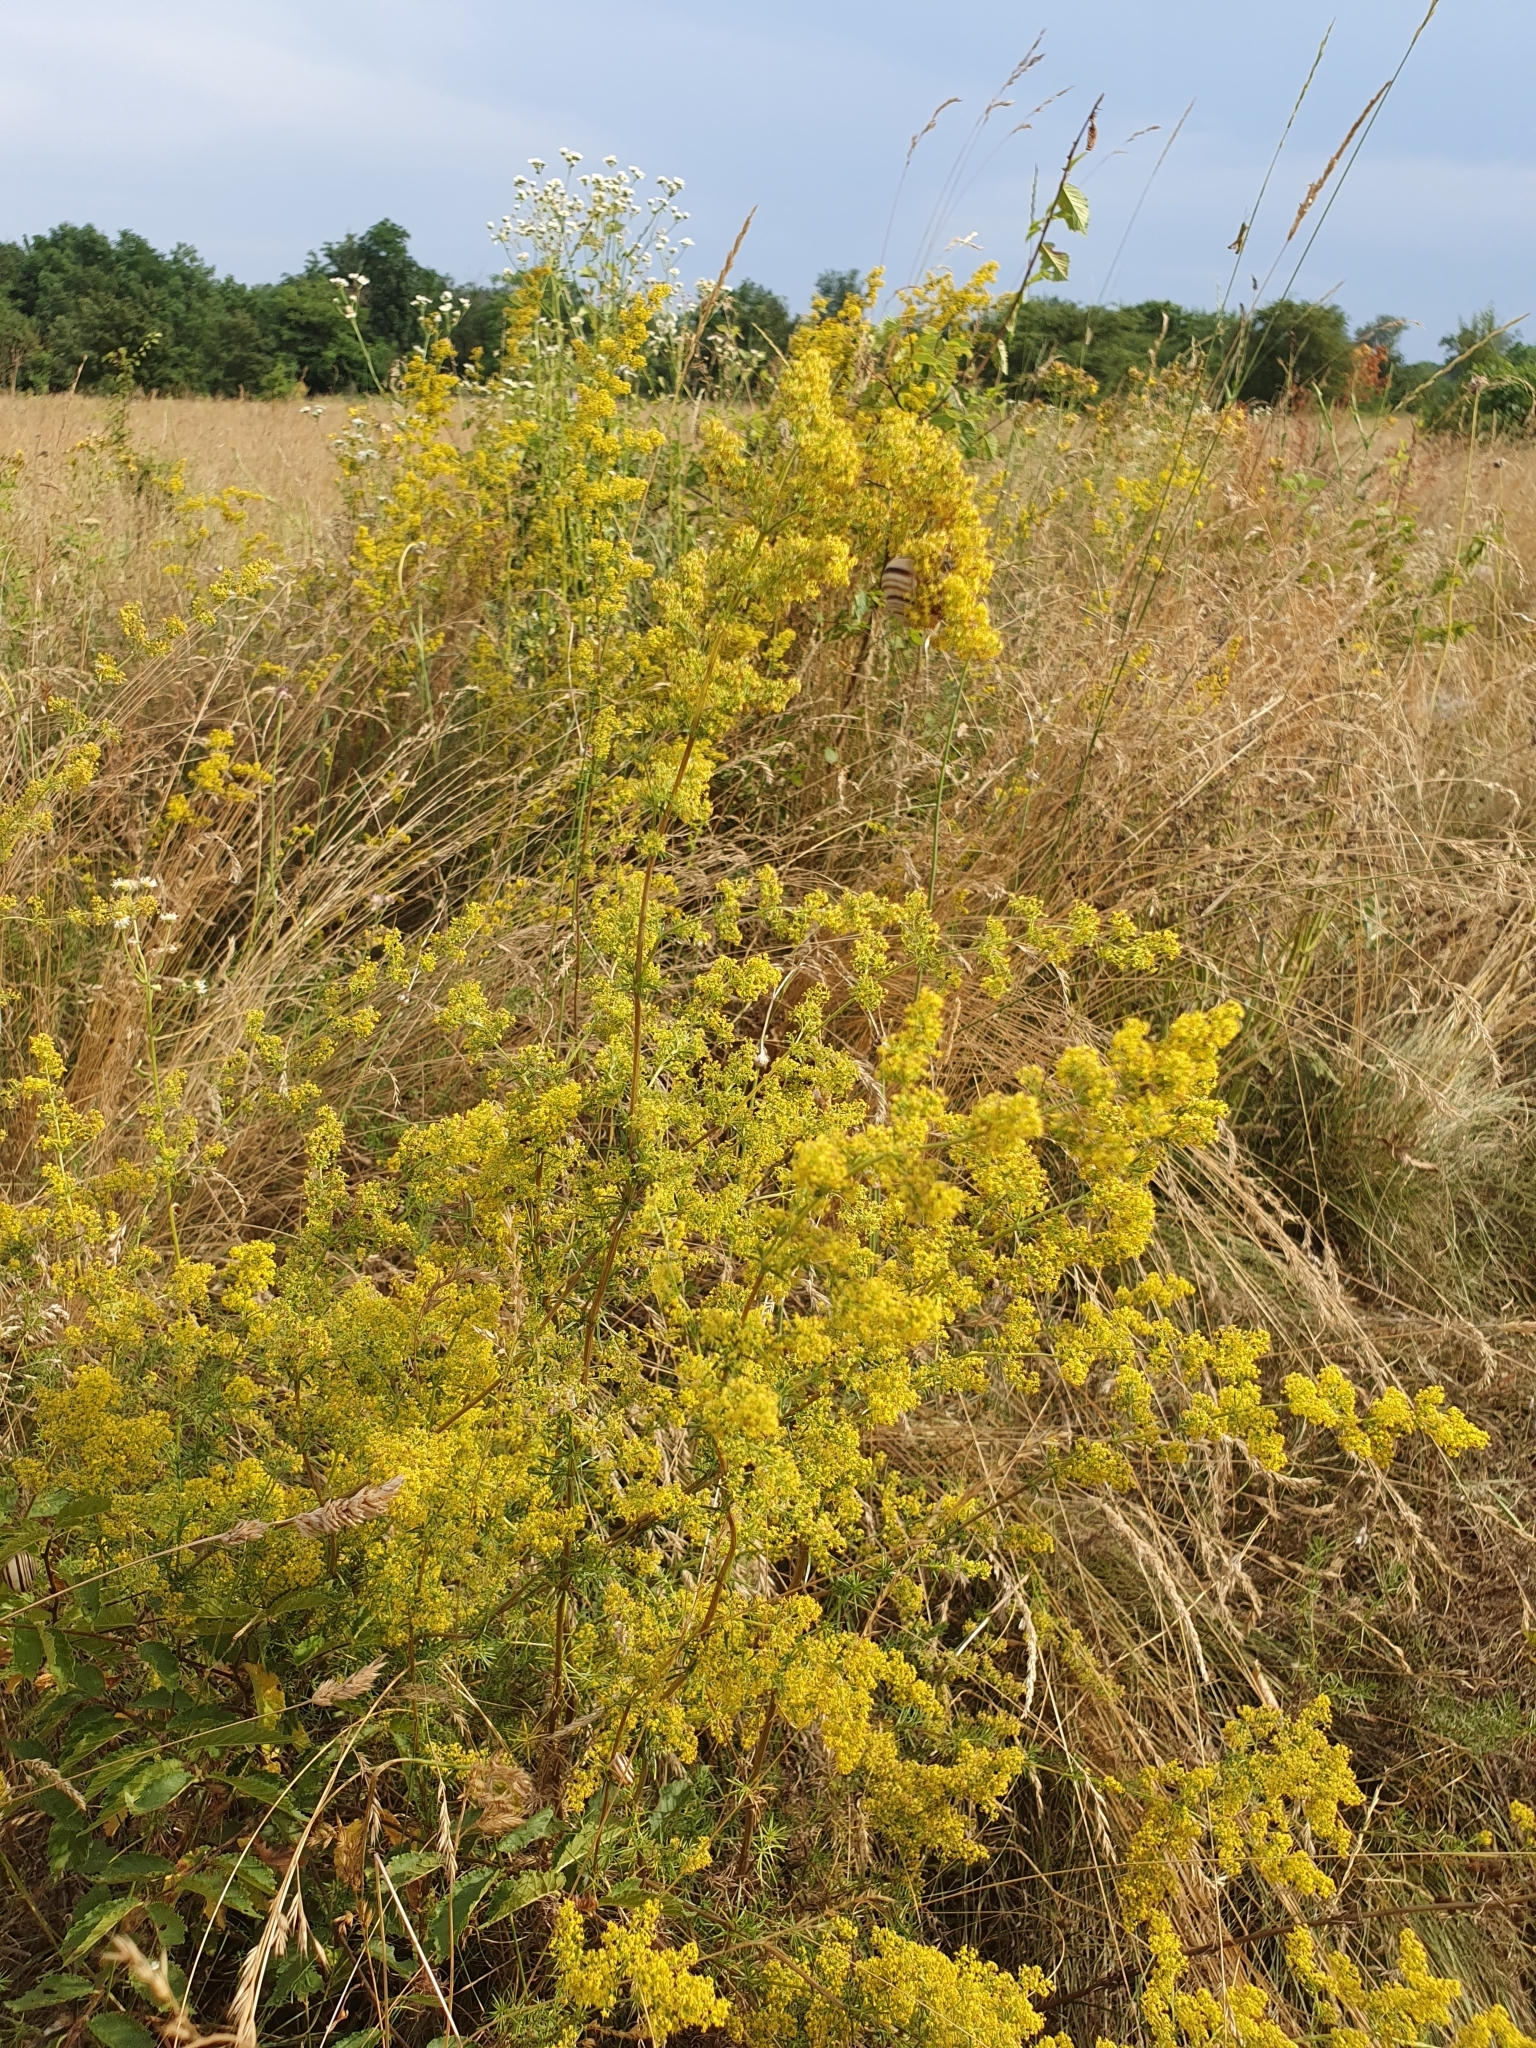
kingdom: Plantae
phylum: Tracheophyta
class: Magnoliopsida
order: Gentianales
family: Rubiaceae
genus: Galium
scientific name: Galium verum
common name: Lady's bedstraw
